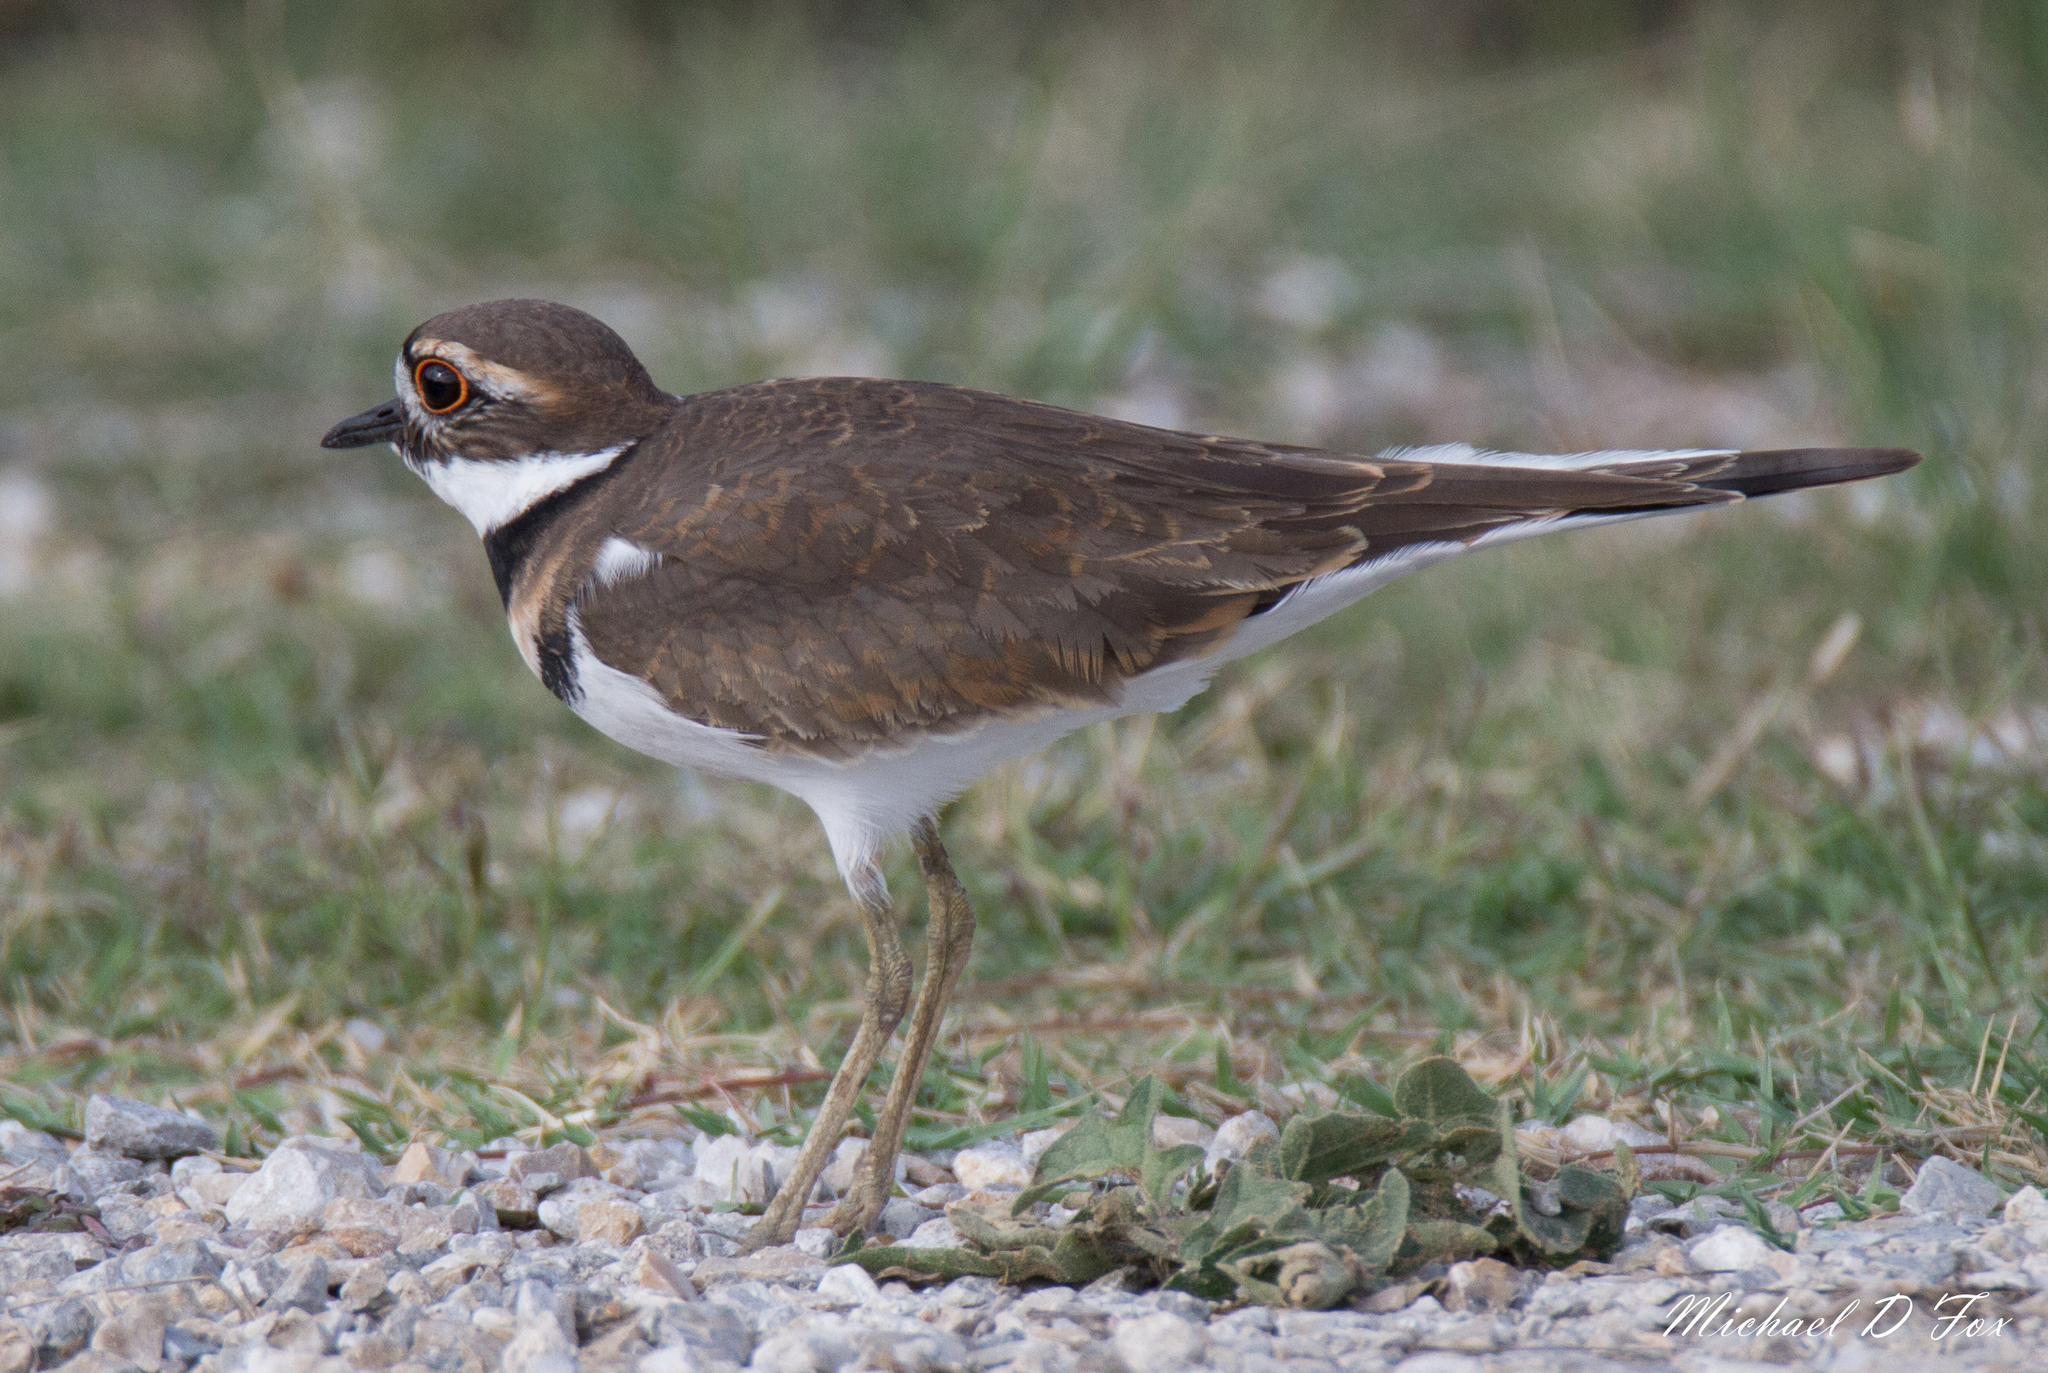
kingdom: Animalia
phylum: Chordata
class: Aves
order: Charadriiformes
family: Charadriidae
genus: Charadrius
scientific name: Charadrius vociferus
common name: Killdeer
